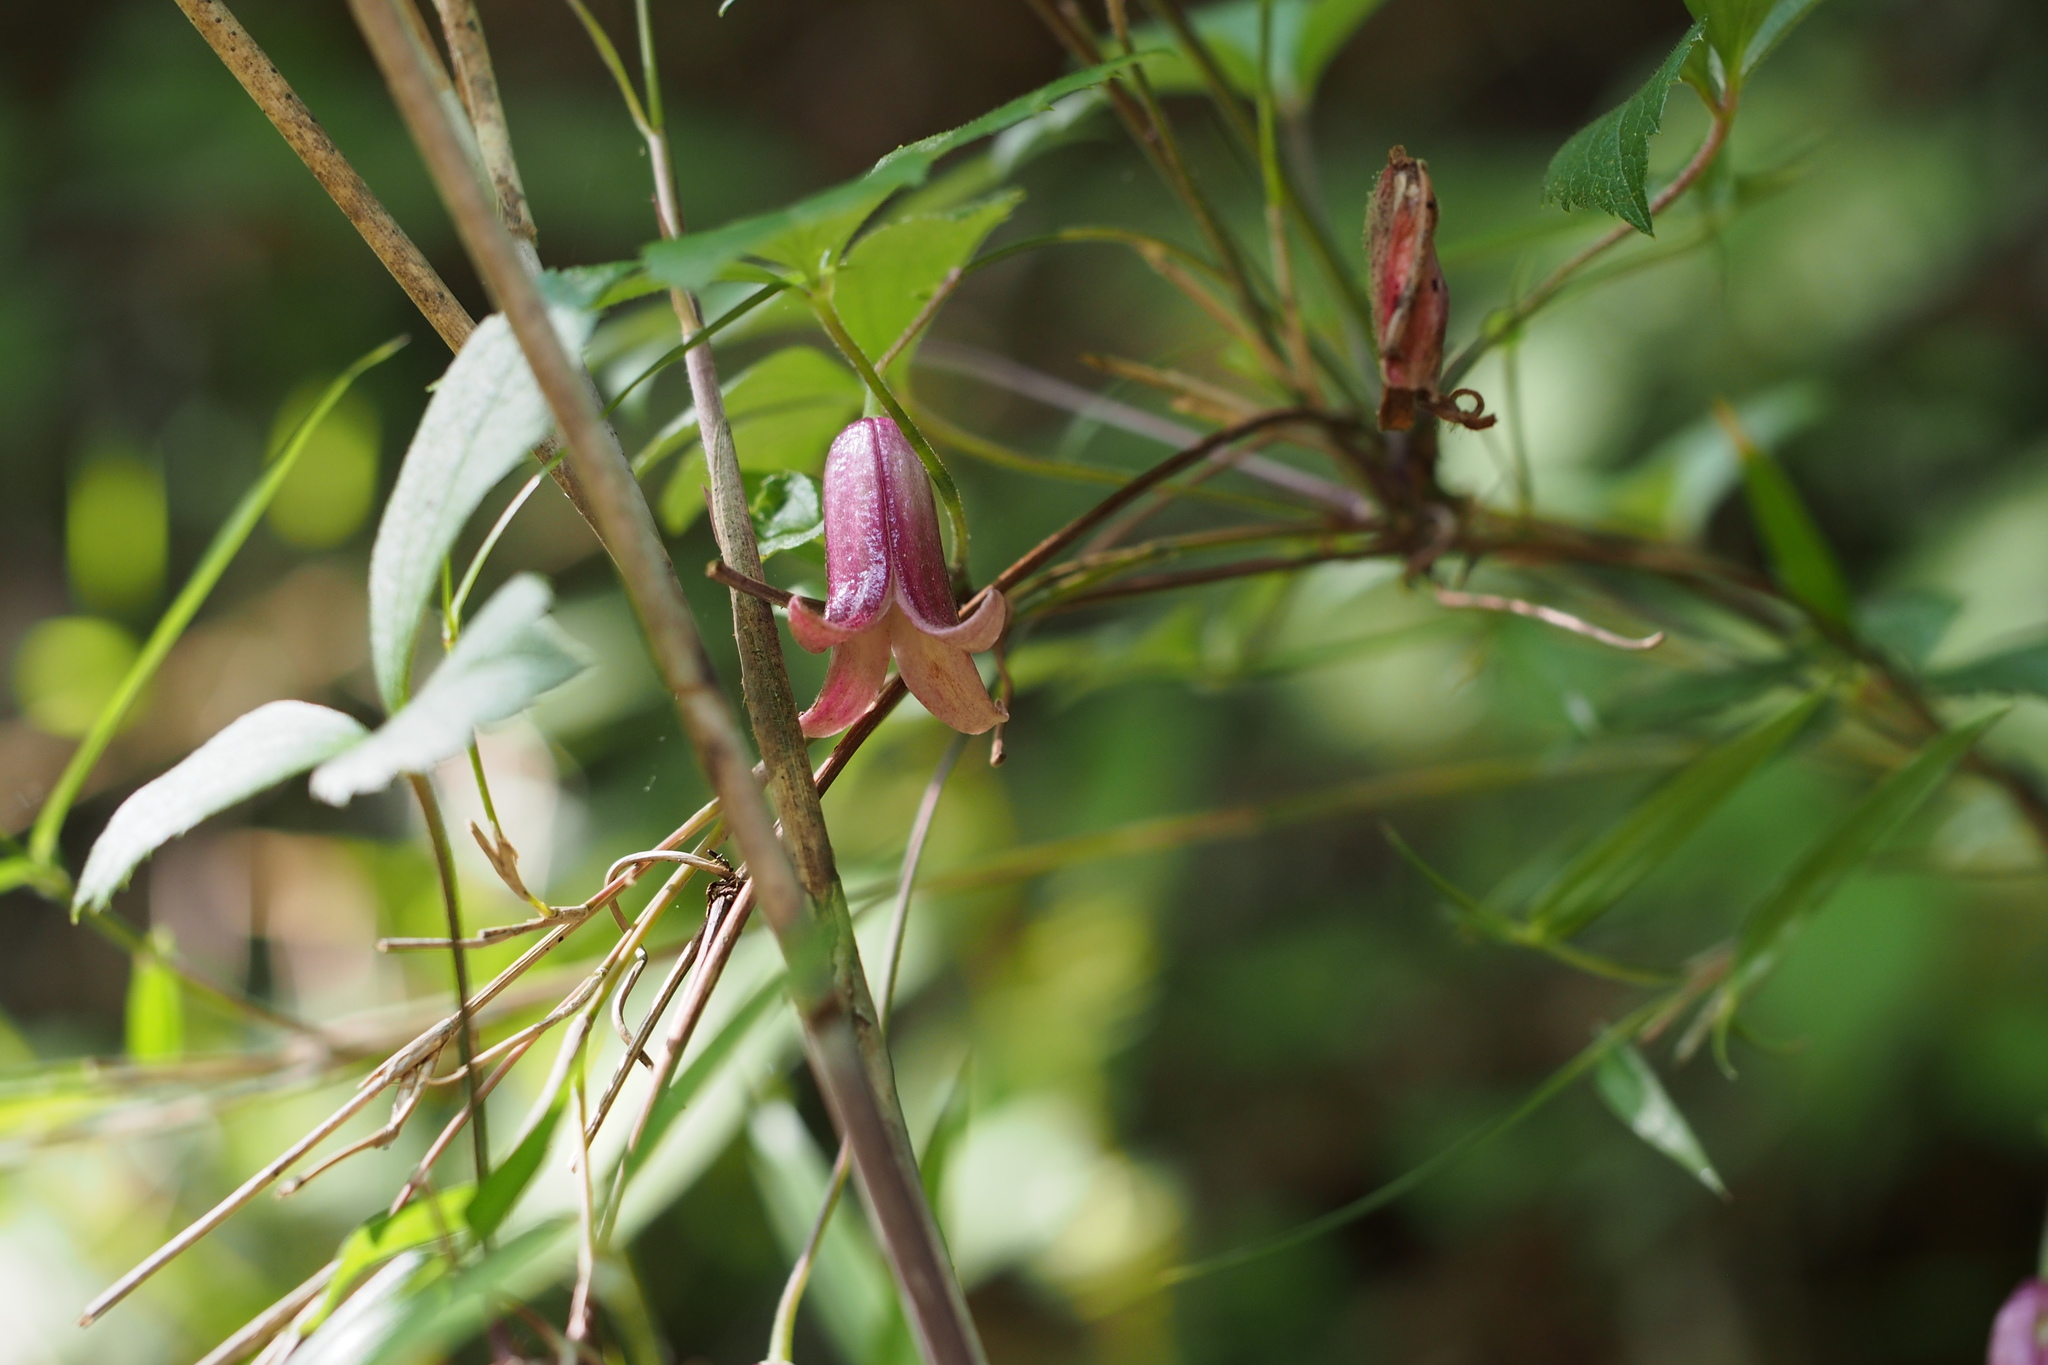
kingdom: Plantae
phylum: Tracheophyta
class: Magnoliopsida
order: Ranunculales
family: Ranunculaceae
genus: Clematis
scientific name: Clematis japonica
